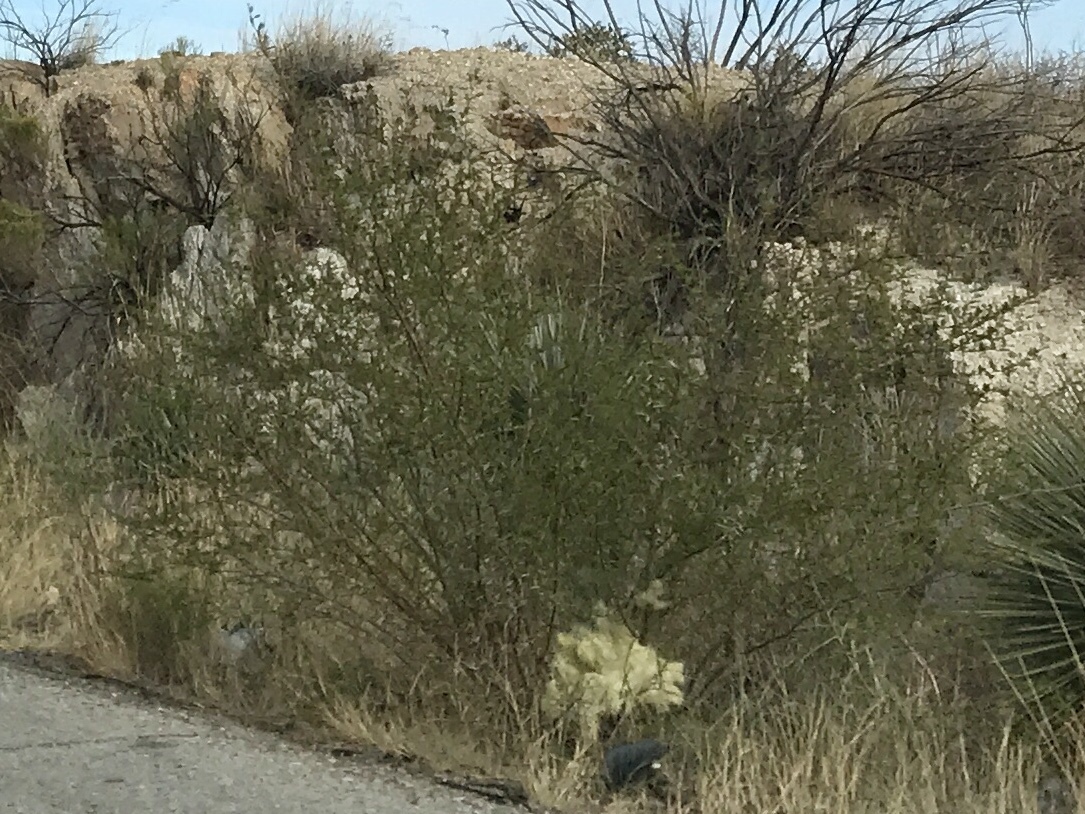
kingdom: Plantae
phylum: Tracheophyta
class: Magnoliopsida
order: Zygophyllales
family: Zygophyllaceae
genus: Larrea
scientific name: Larrea tridentata
